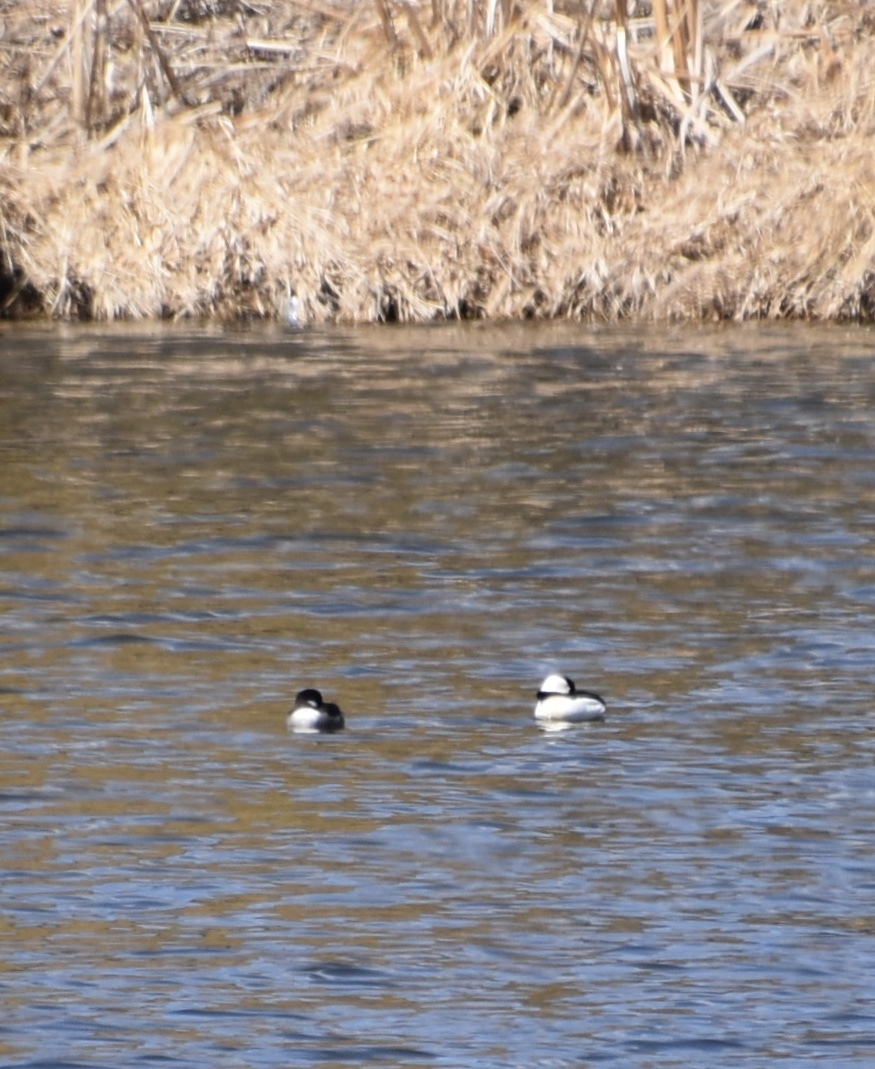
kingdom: Animalia
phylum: Chordata
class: Aves
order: Anseriformes
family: Anatidae
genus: Bucephala
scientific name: Bucephala albeola
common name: Bufflehead
